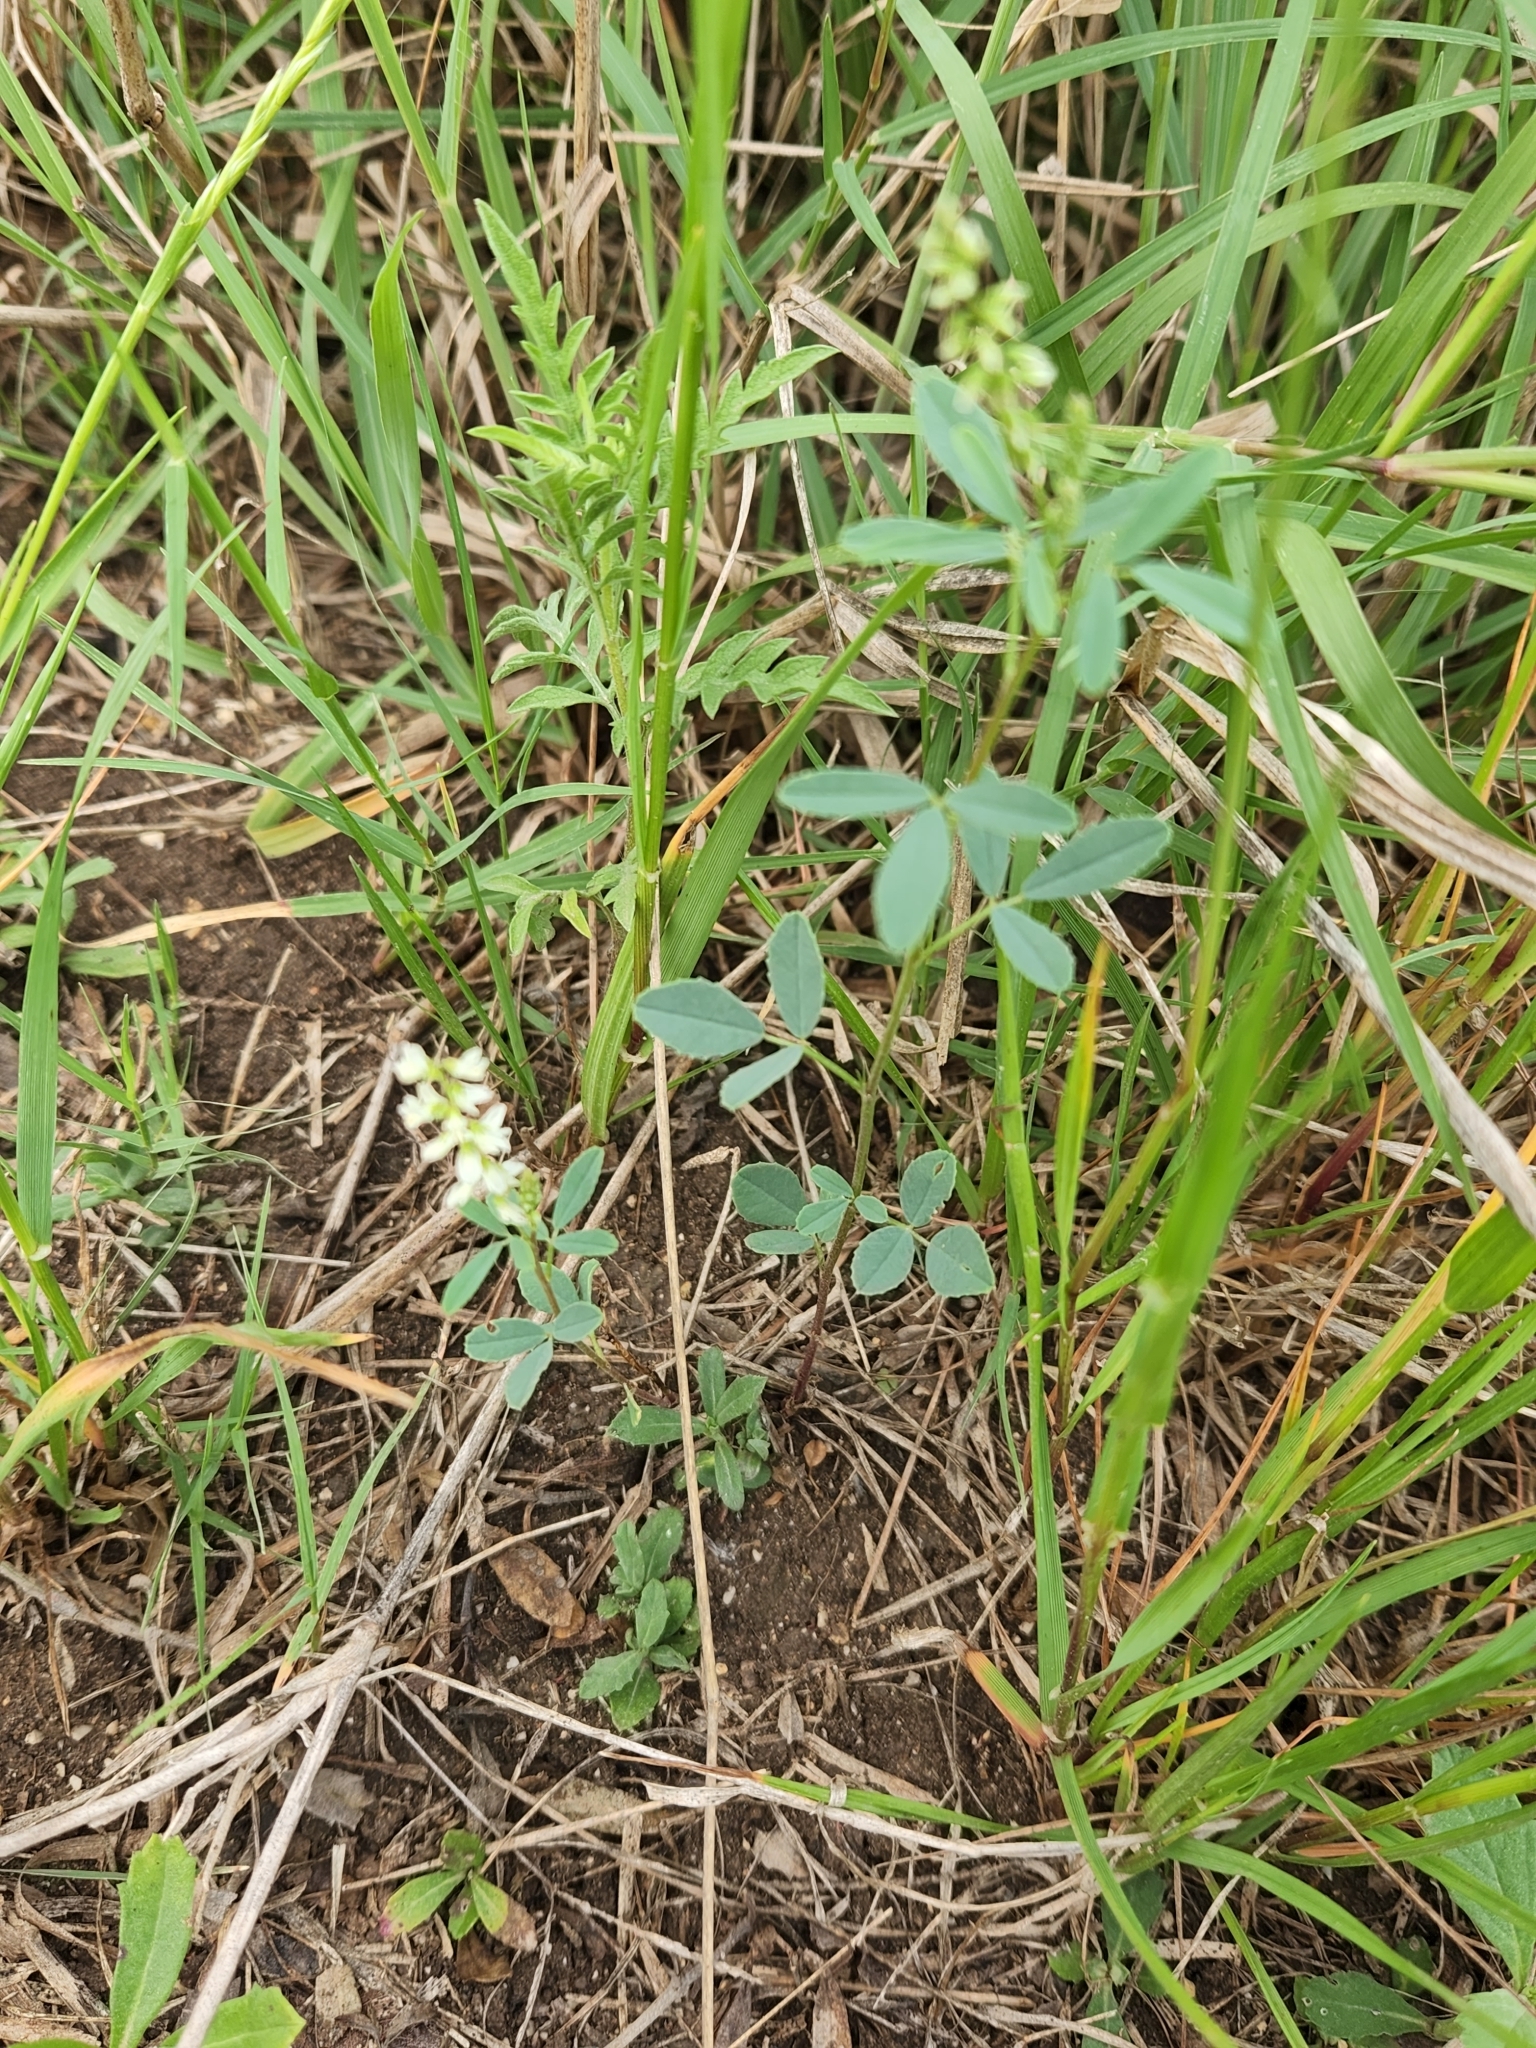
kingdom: Plantae
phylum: Tracheophyta
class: Magnoliopsida
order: Fabales
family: Fabaceae
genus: Melilotus
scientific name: Melilotus albus
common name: White melilot
